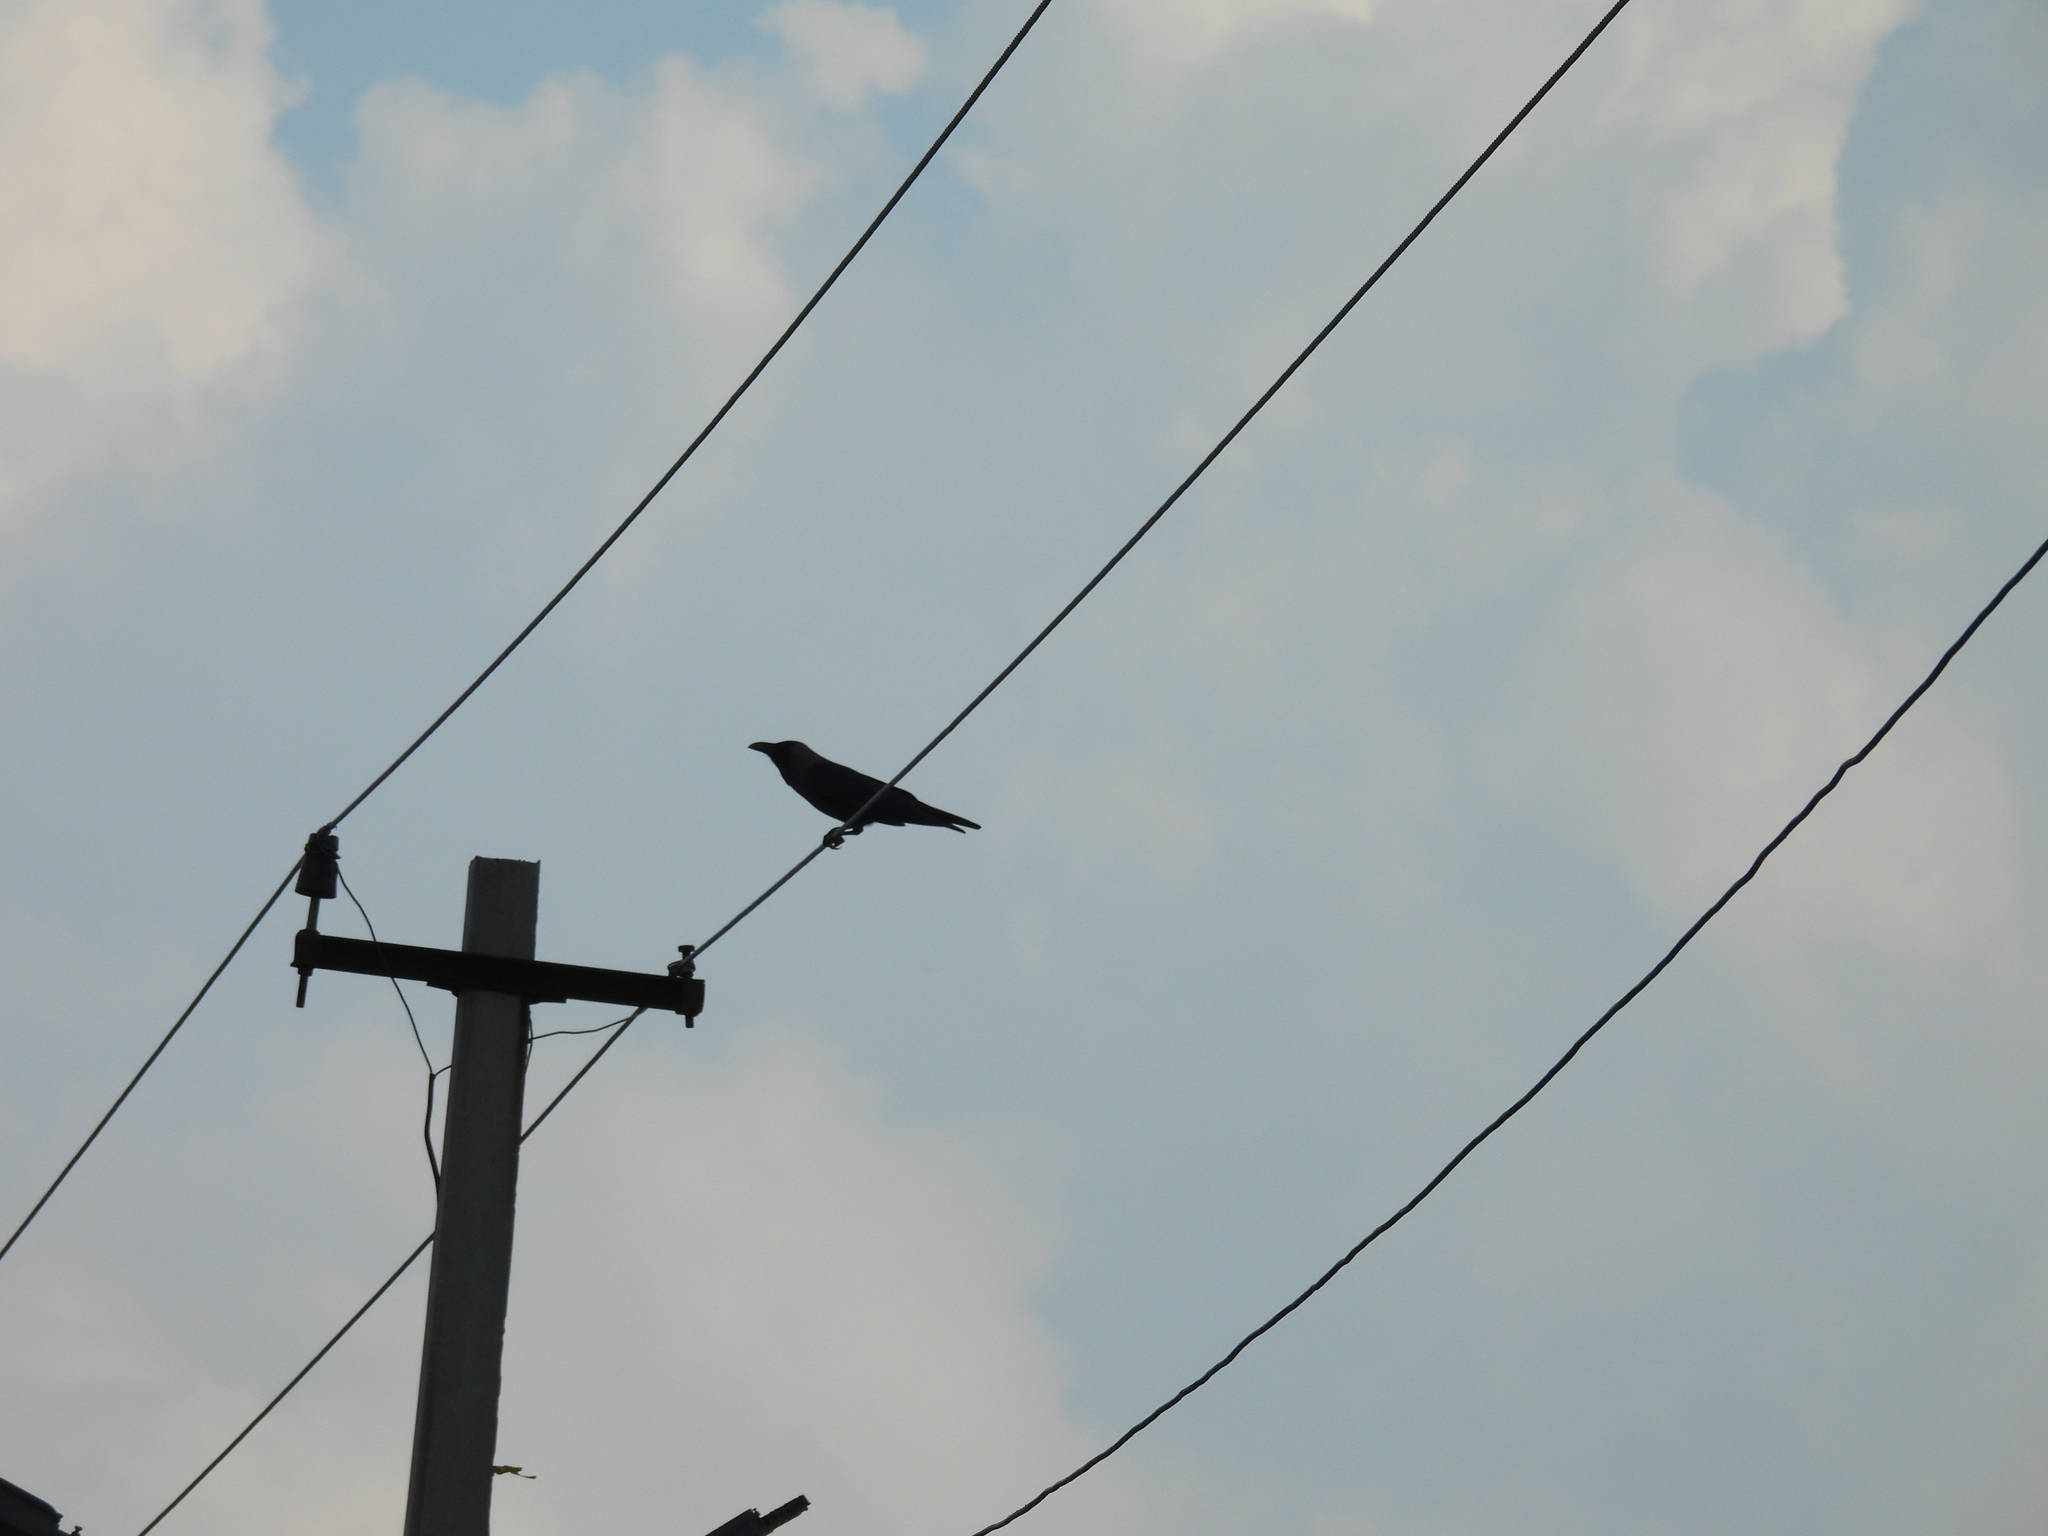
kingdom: Animalia
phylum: Chordata
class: Aves
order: Passeriformes
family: Corvidae
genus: Corvus
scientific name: Corvus splendens
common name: House crow
